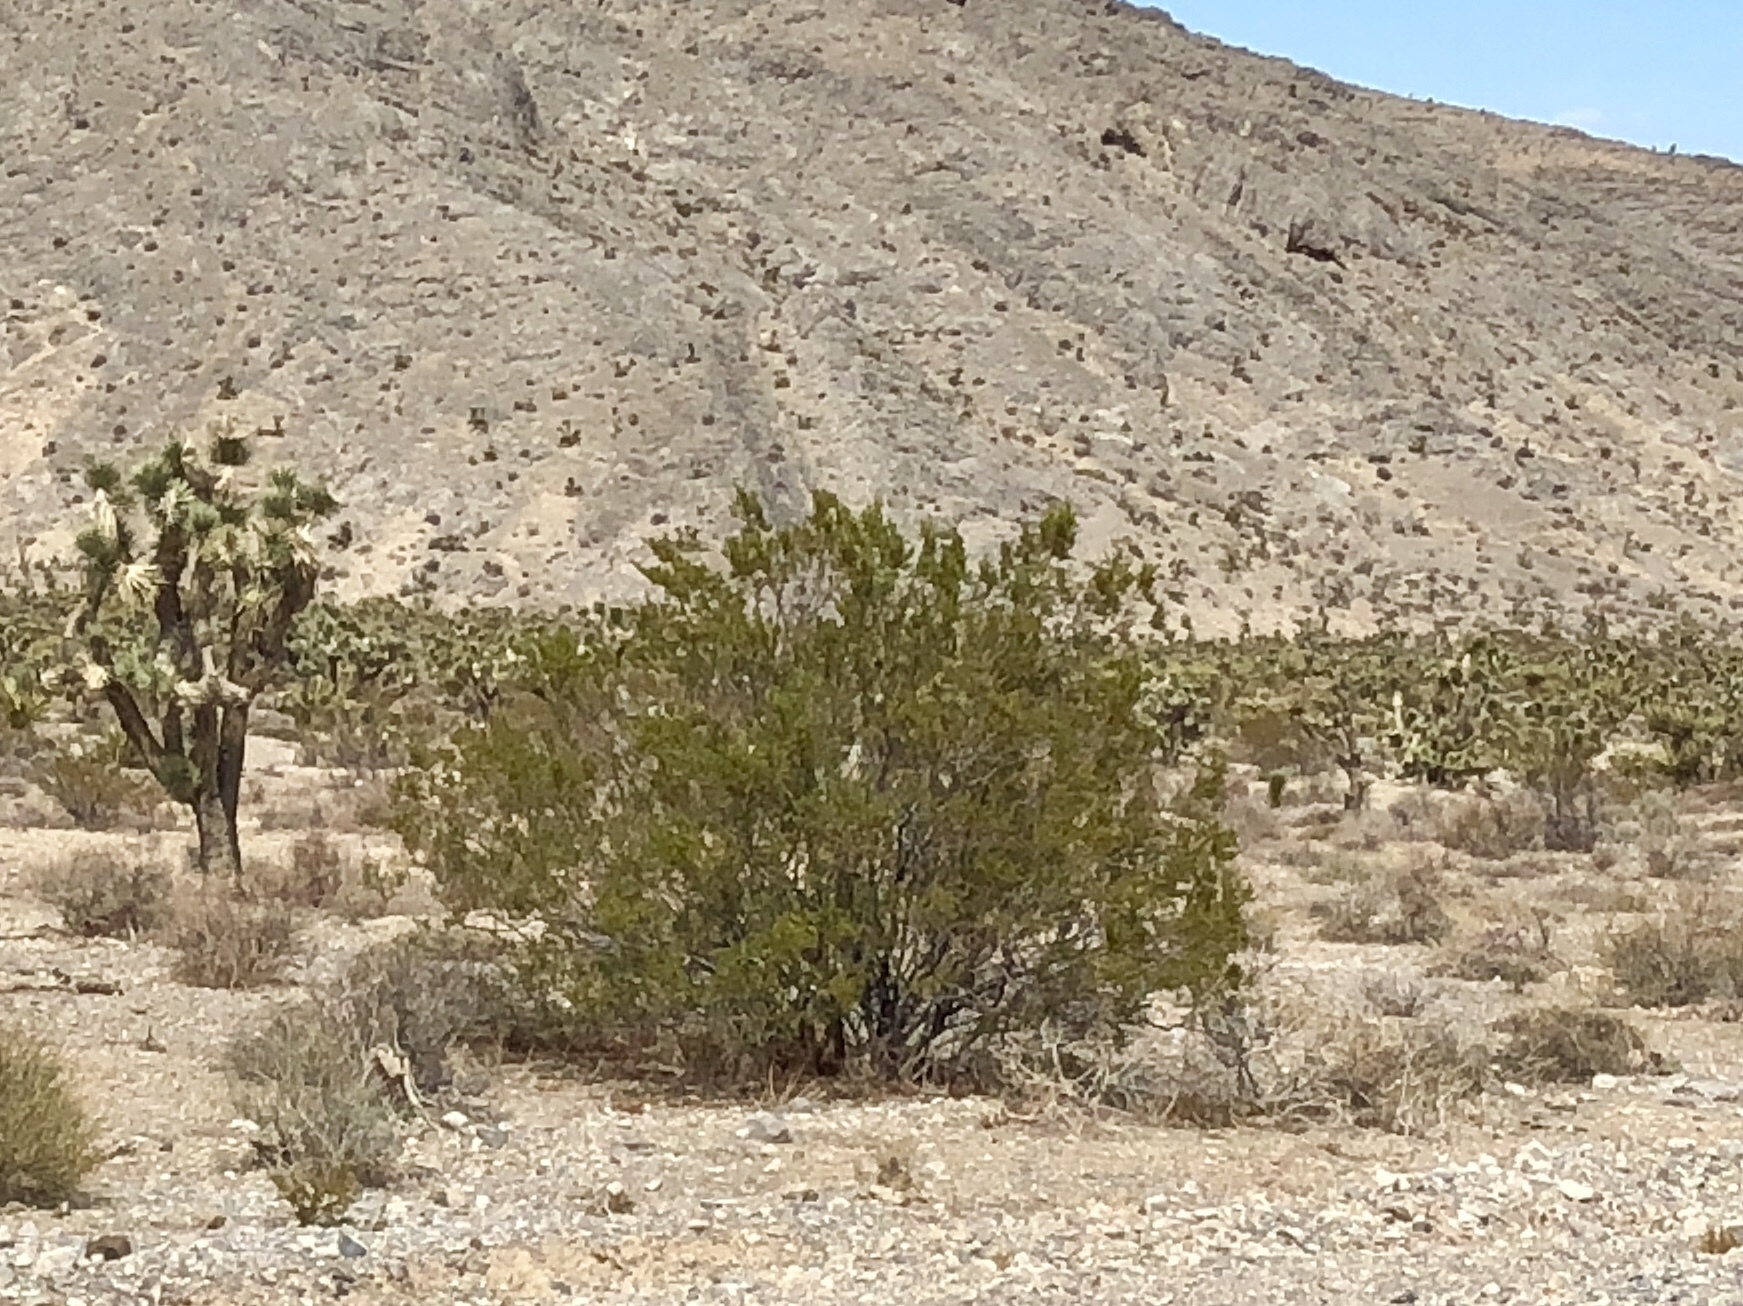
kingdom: Plantae
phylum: Tracheophyta
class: Magnoliopsida
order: Zygophyllales
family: Zygophyllaceae
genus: Larrea
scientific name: Larrea tridentata
